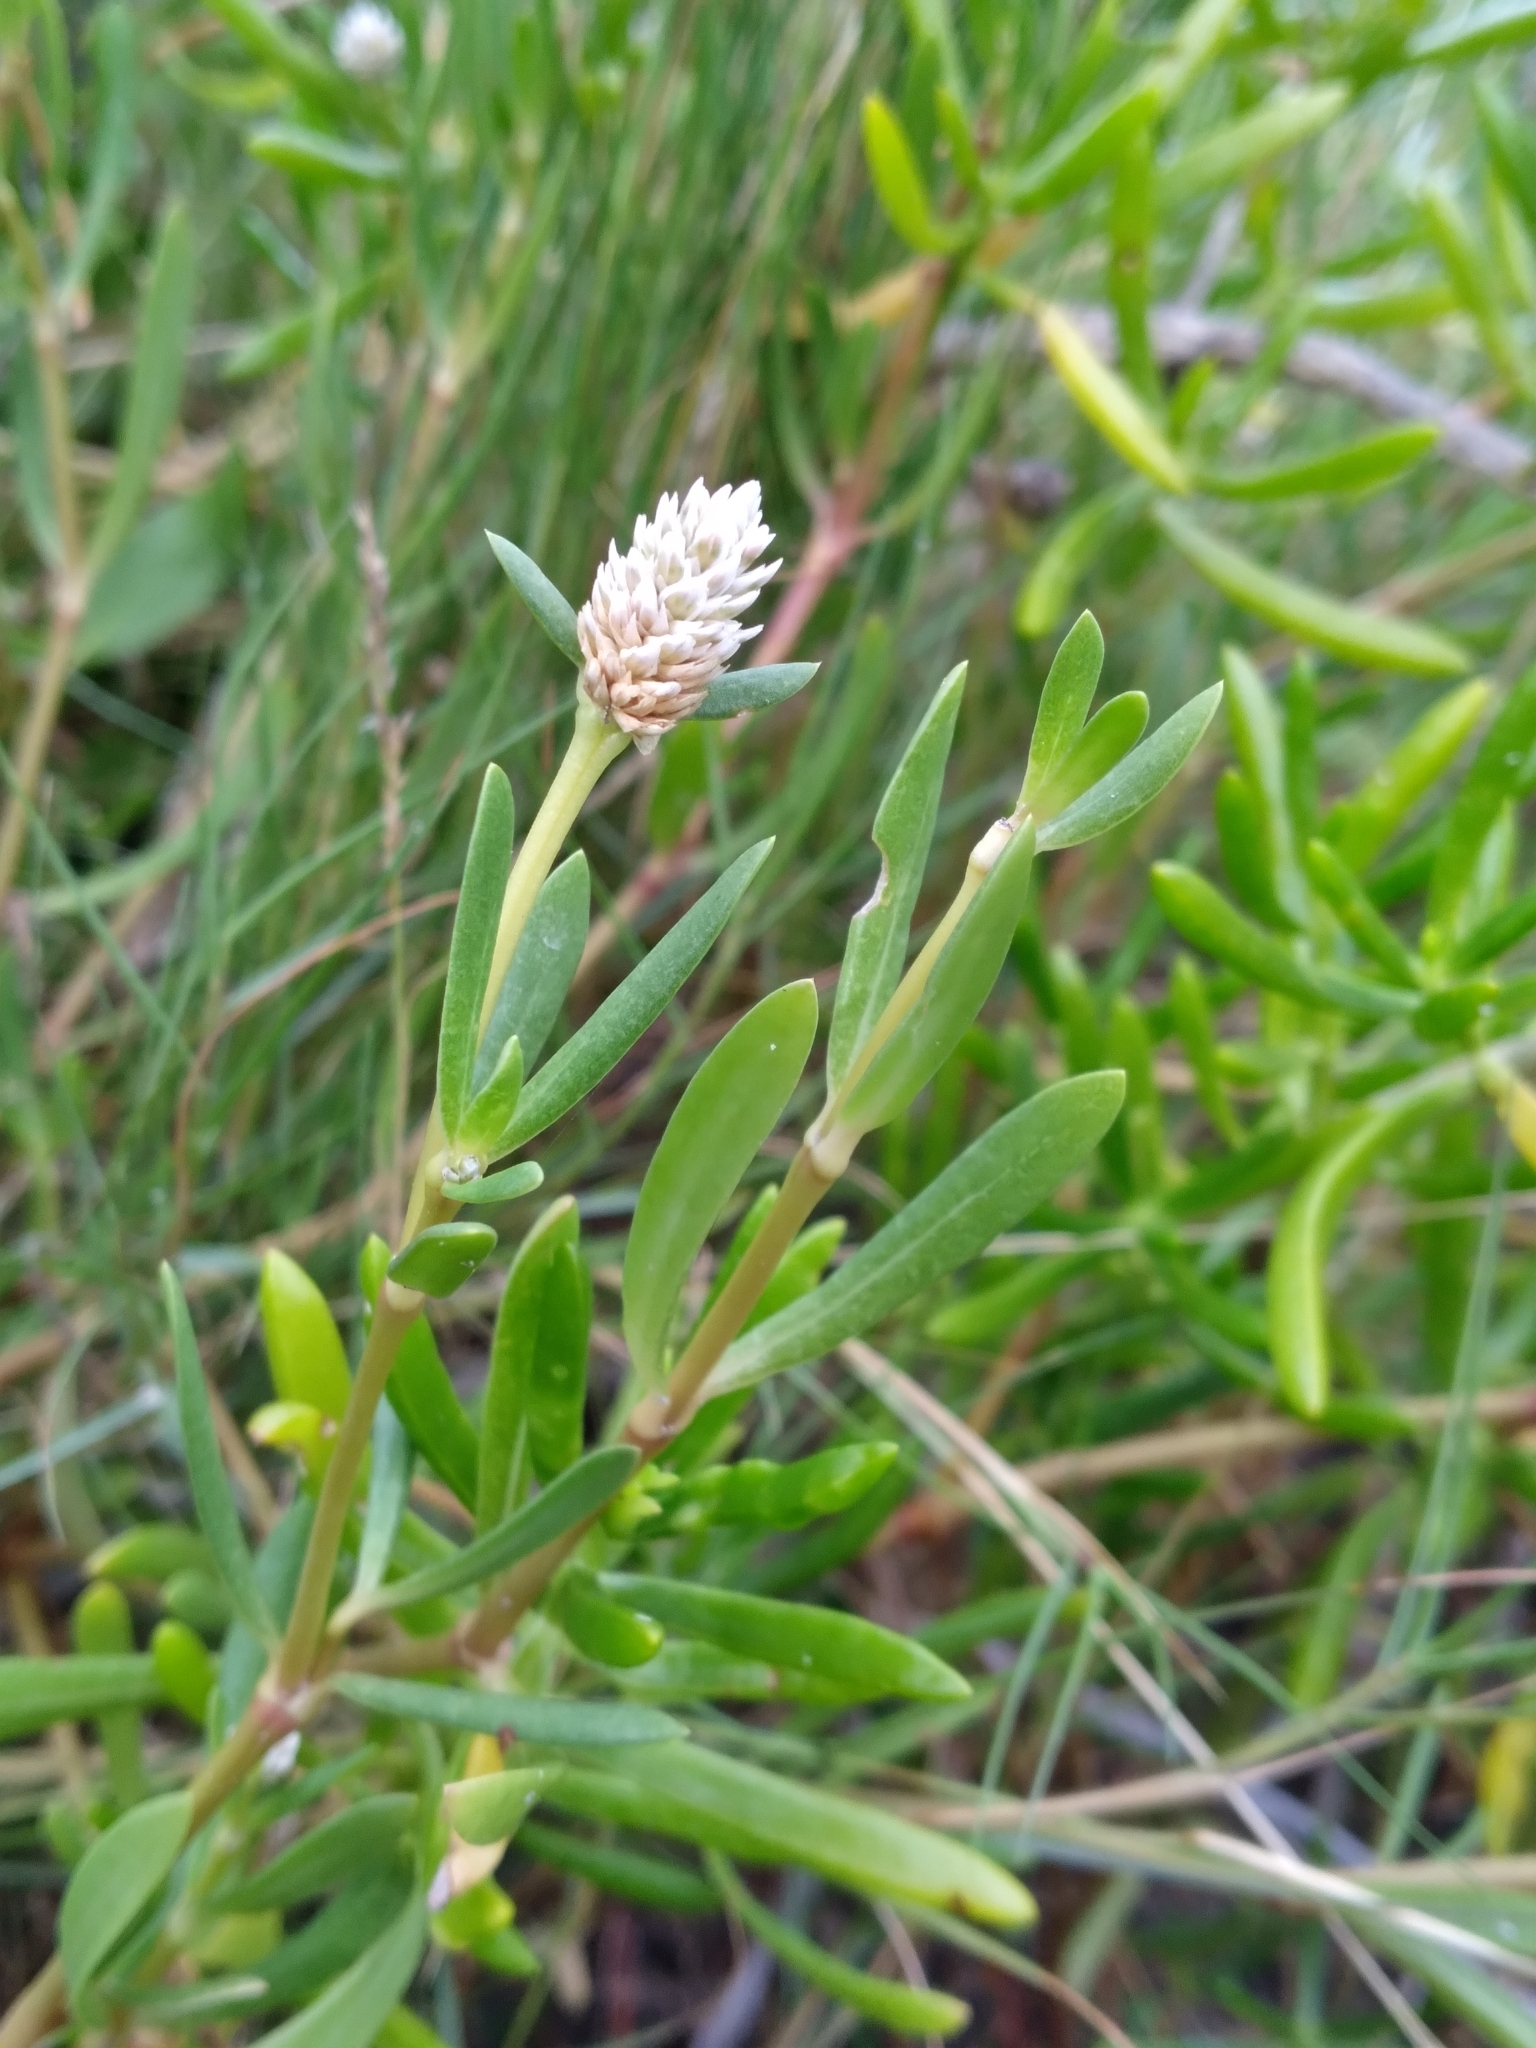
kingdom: Plantae
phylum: Tracheophyta
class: Magnoliopsida
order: Caryophyllales
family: Amaranthaceae
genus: Gomphrena
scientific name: Gomphrena vermicularis
